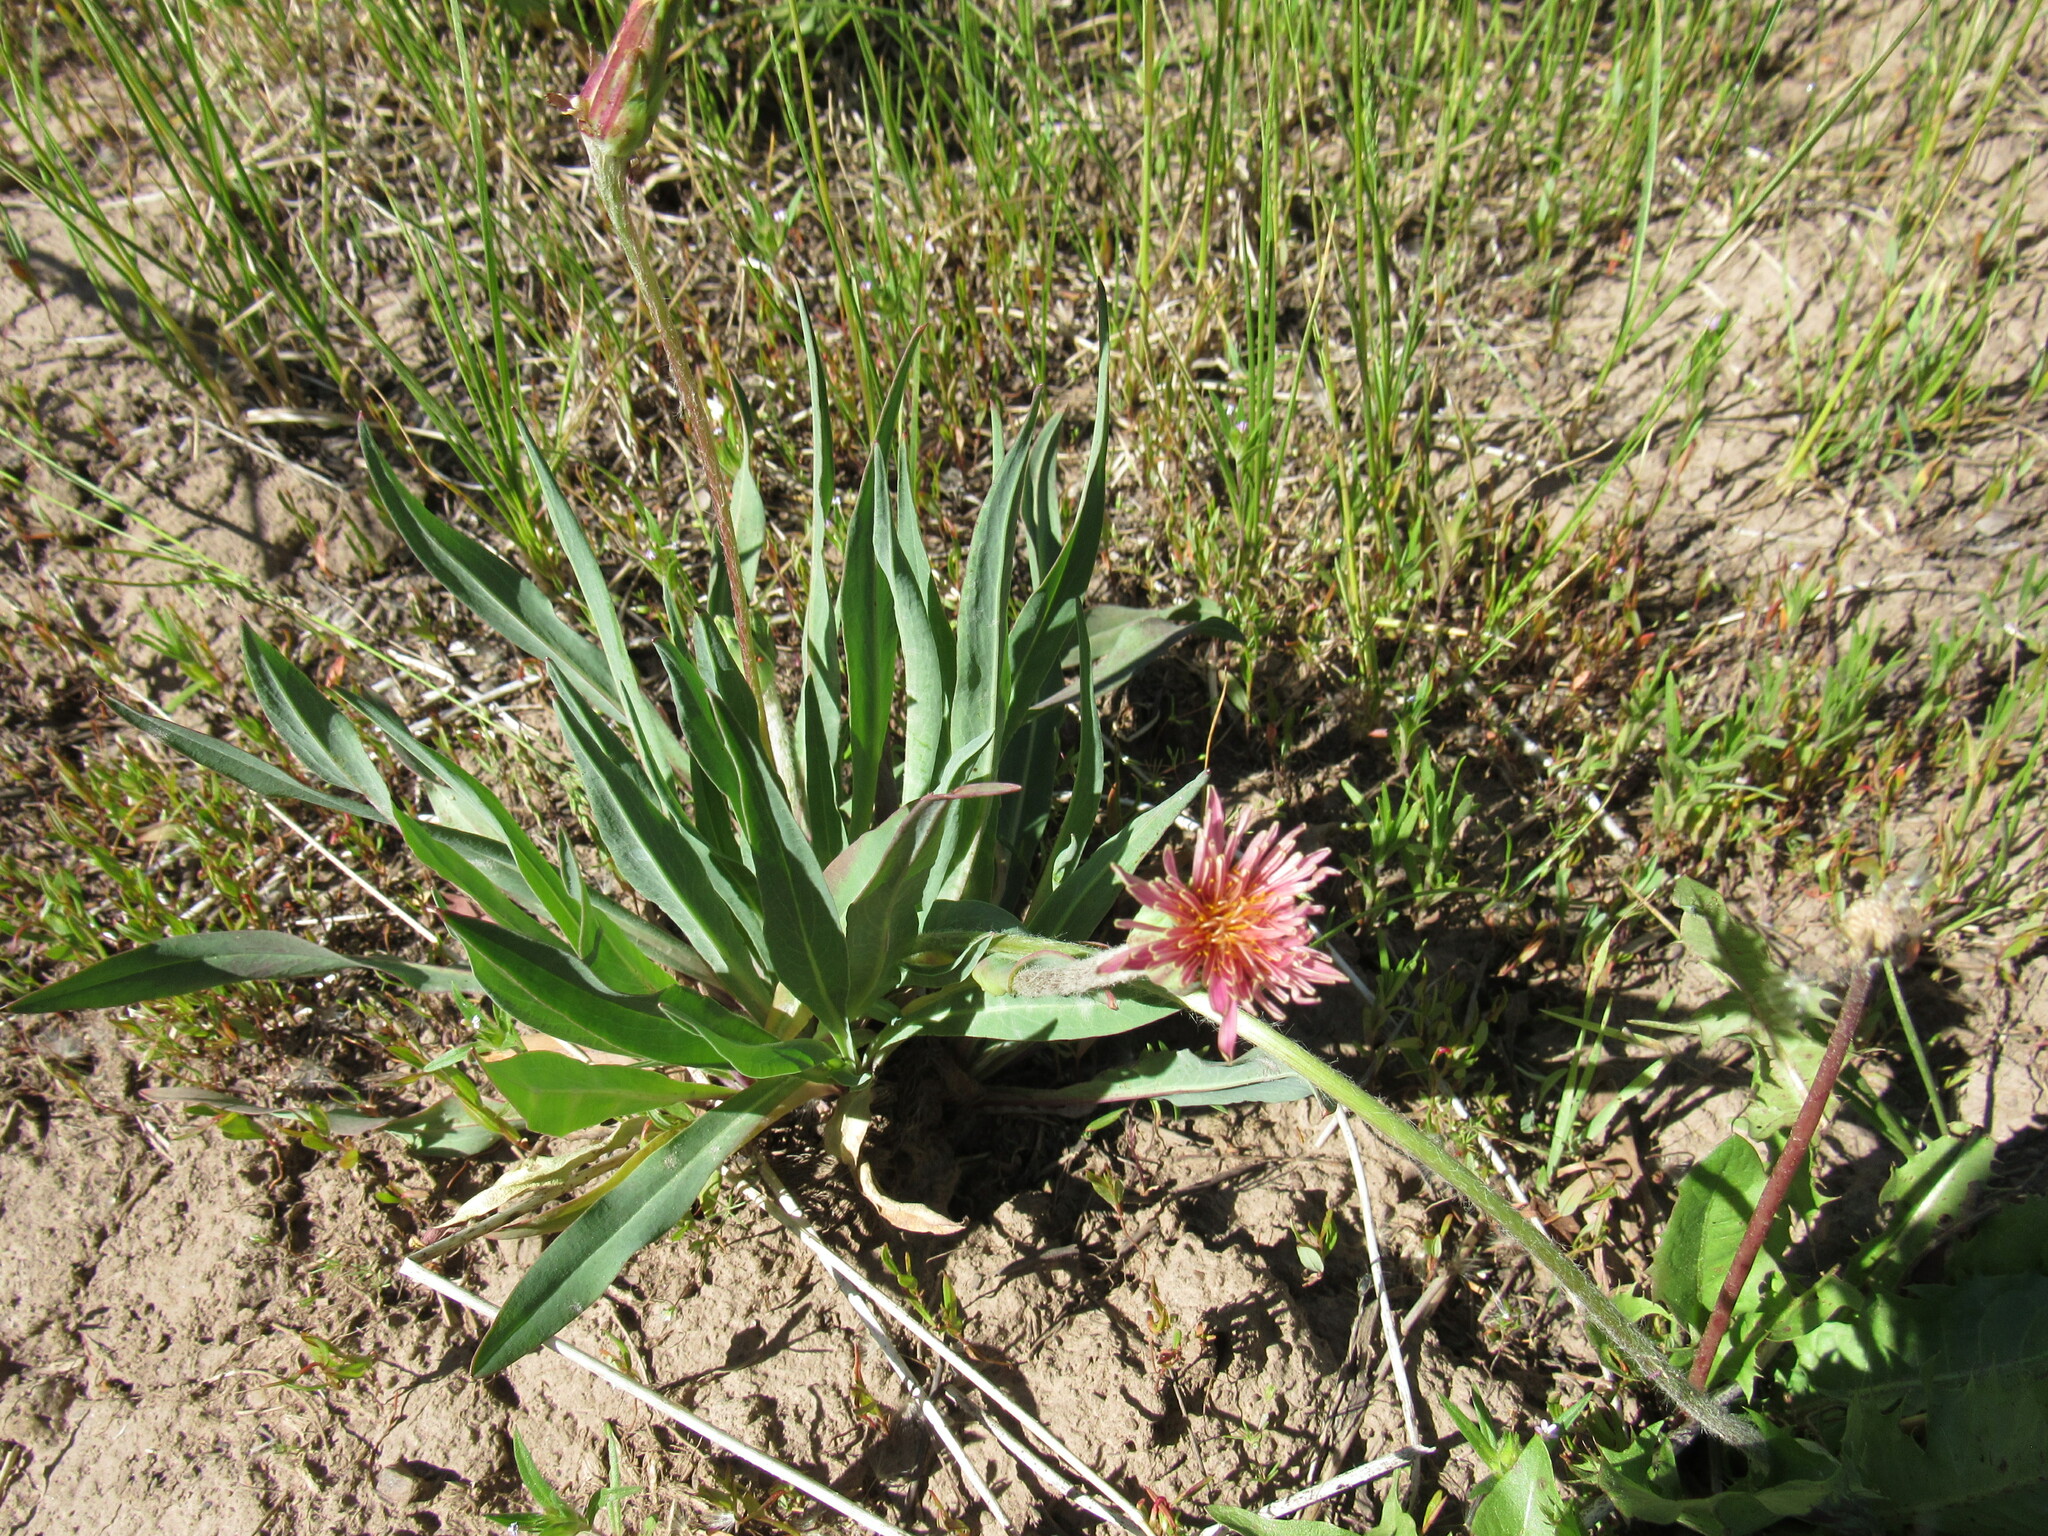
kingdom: Plantae
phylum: Tracheophyta
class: Magnoliopsida
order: Asterales
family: Asteraceae
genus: Agoseris
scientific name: Agoseris aurantiaca
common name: Mountain agoseris
